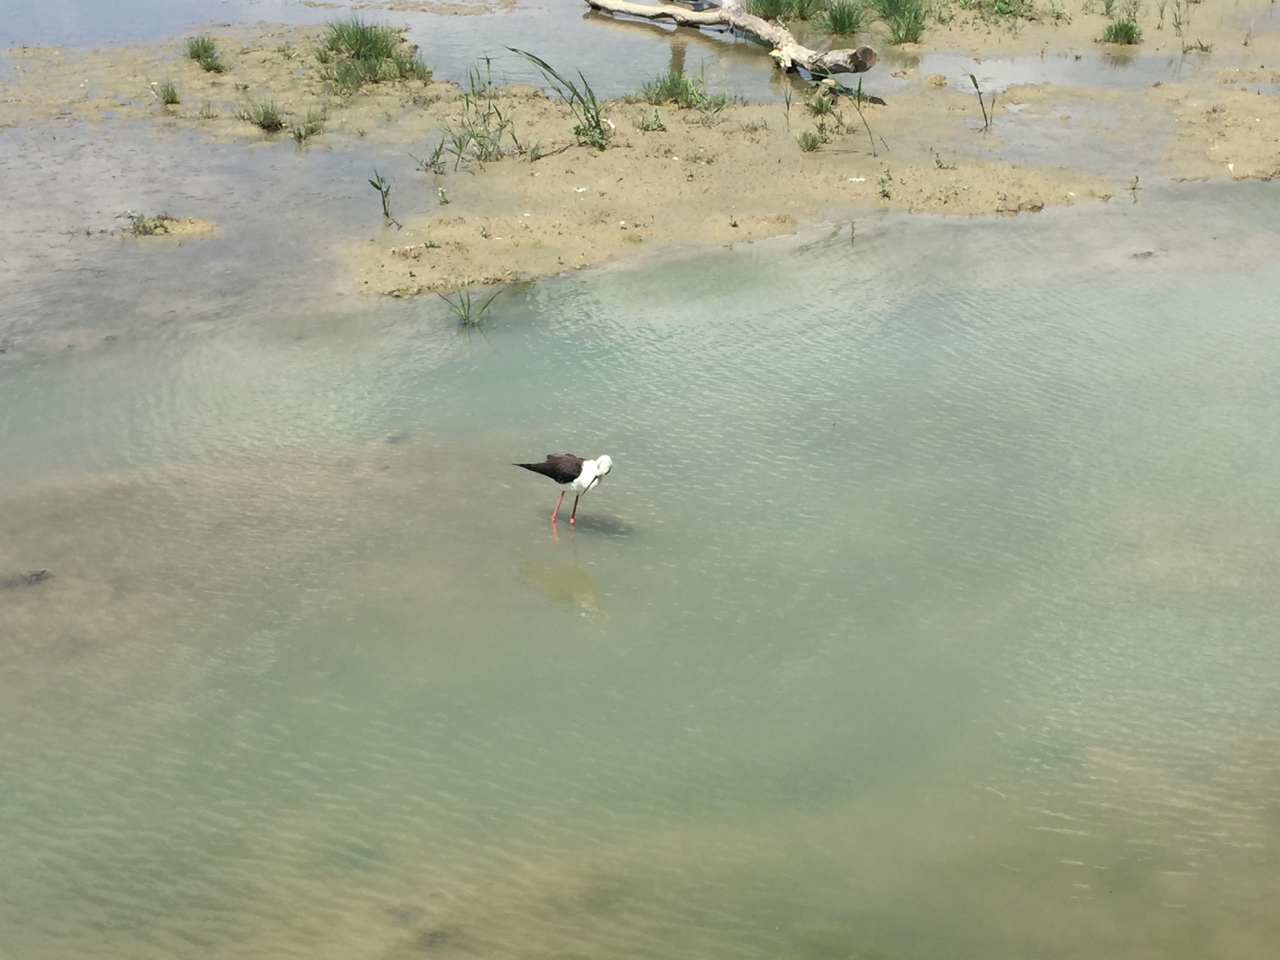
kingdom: Animalia
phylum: Chordata
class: Aves
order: Charadriiformes
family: Recurvirostridae
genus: Himantopus
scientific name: Himantopus himantopus
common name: Black-winged stilt
